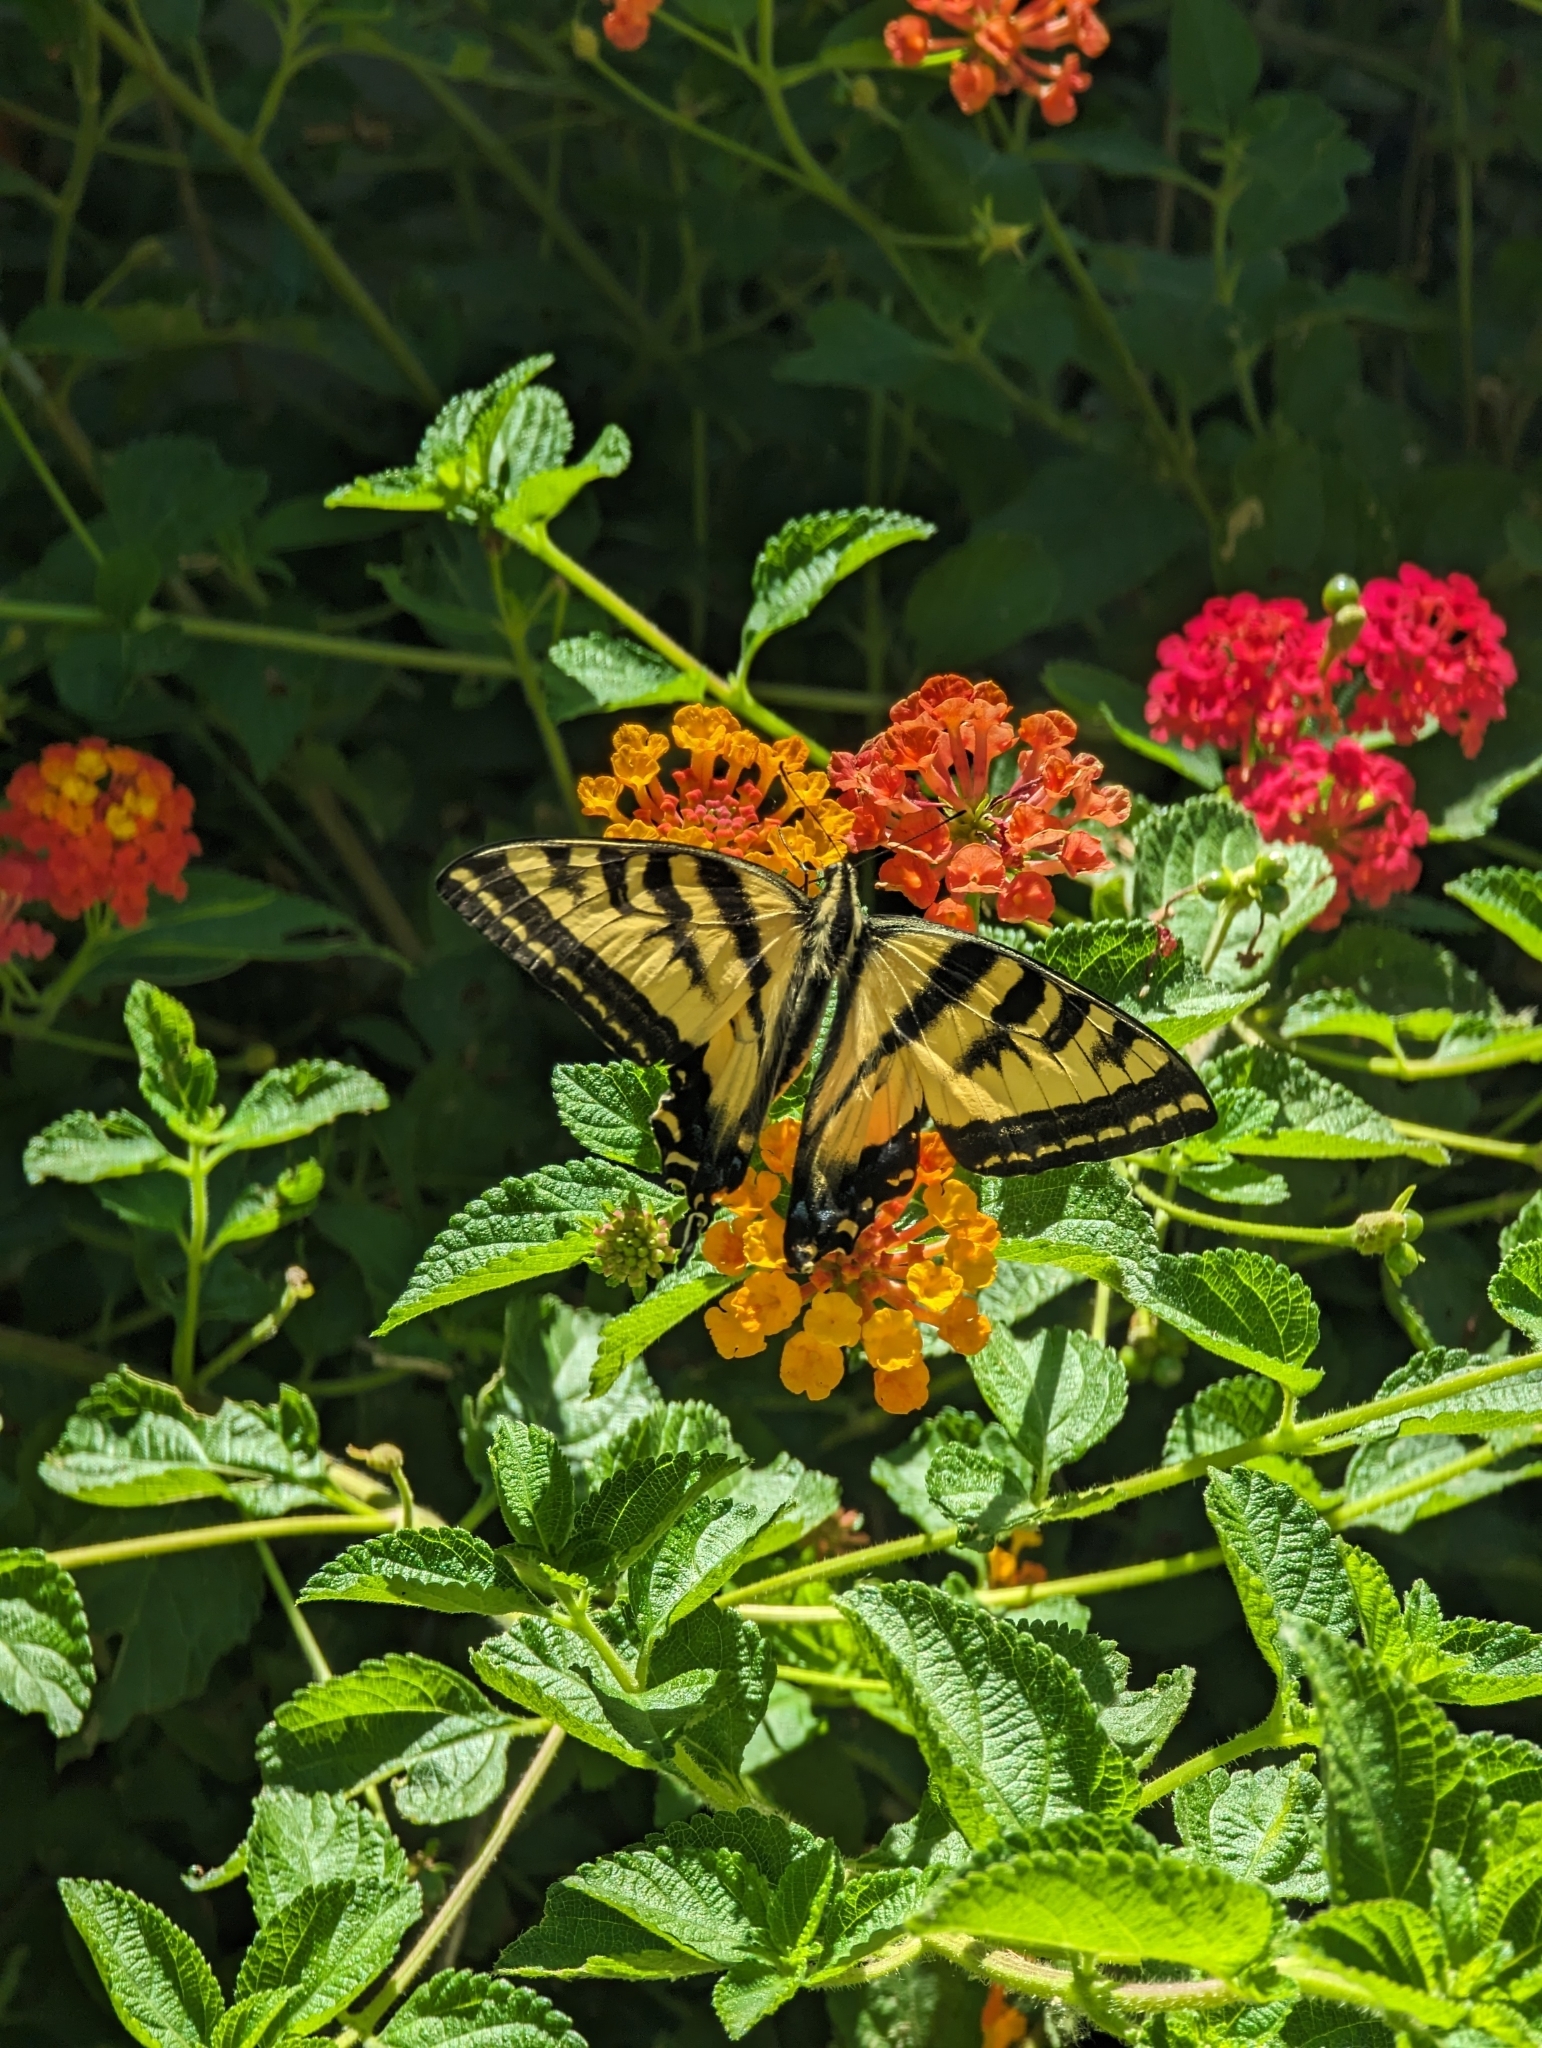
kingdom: Animalia
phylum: Arthropoda
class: Insecta
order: Lepidoptera
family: Papilionidae
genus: Papilio
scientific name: Papilio rutulus
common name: Western tiger swallowtail
